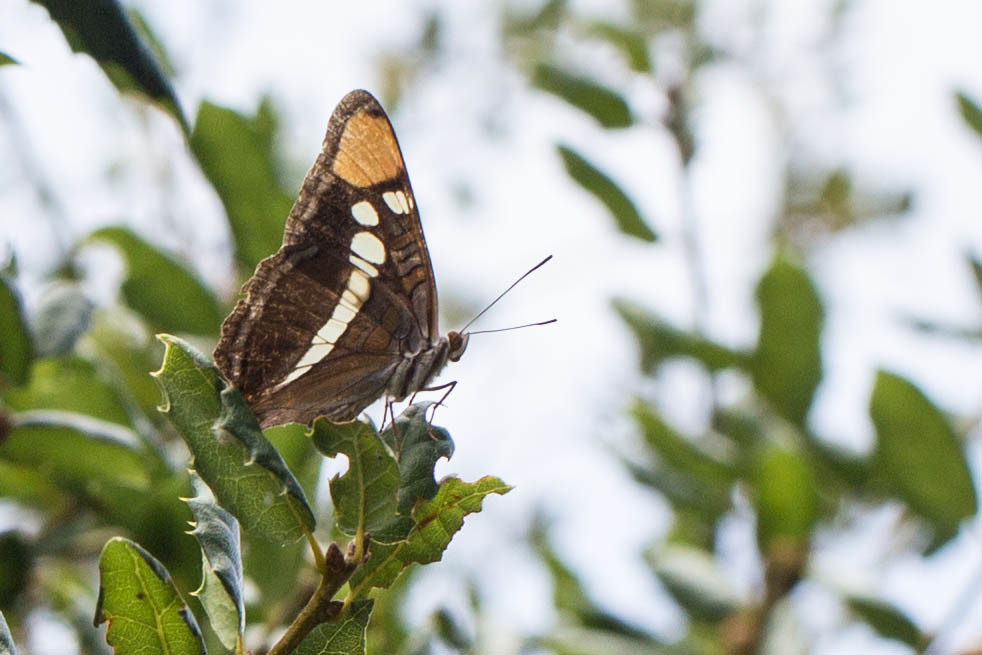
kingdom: Animalia
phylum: Arthropoda
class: Insecta
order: Lepidoptera
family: Nymphalidae
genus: Limenitis
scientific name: Limenitis bredowii
